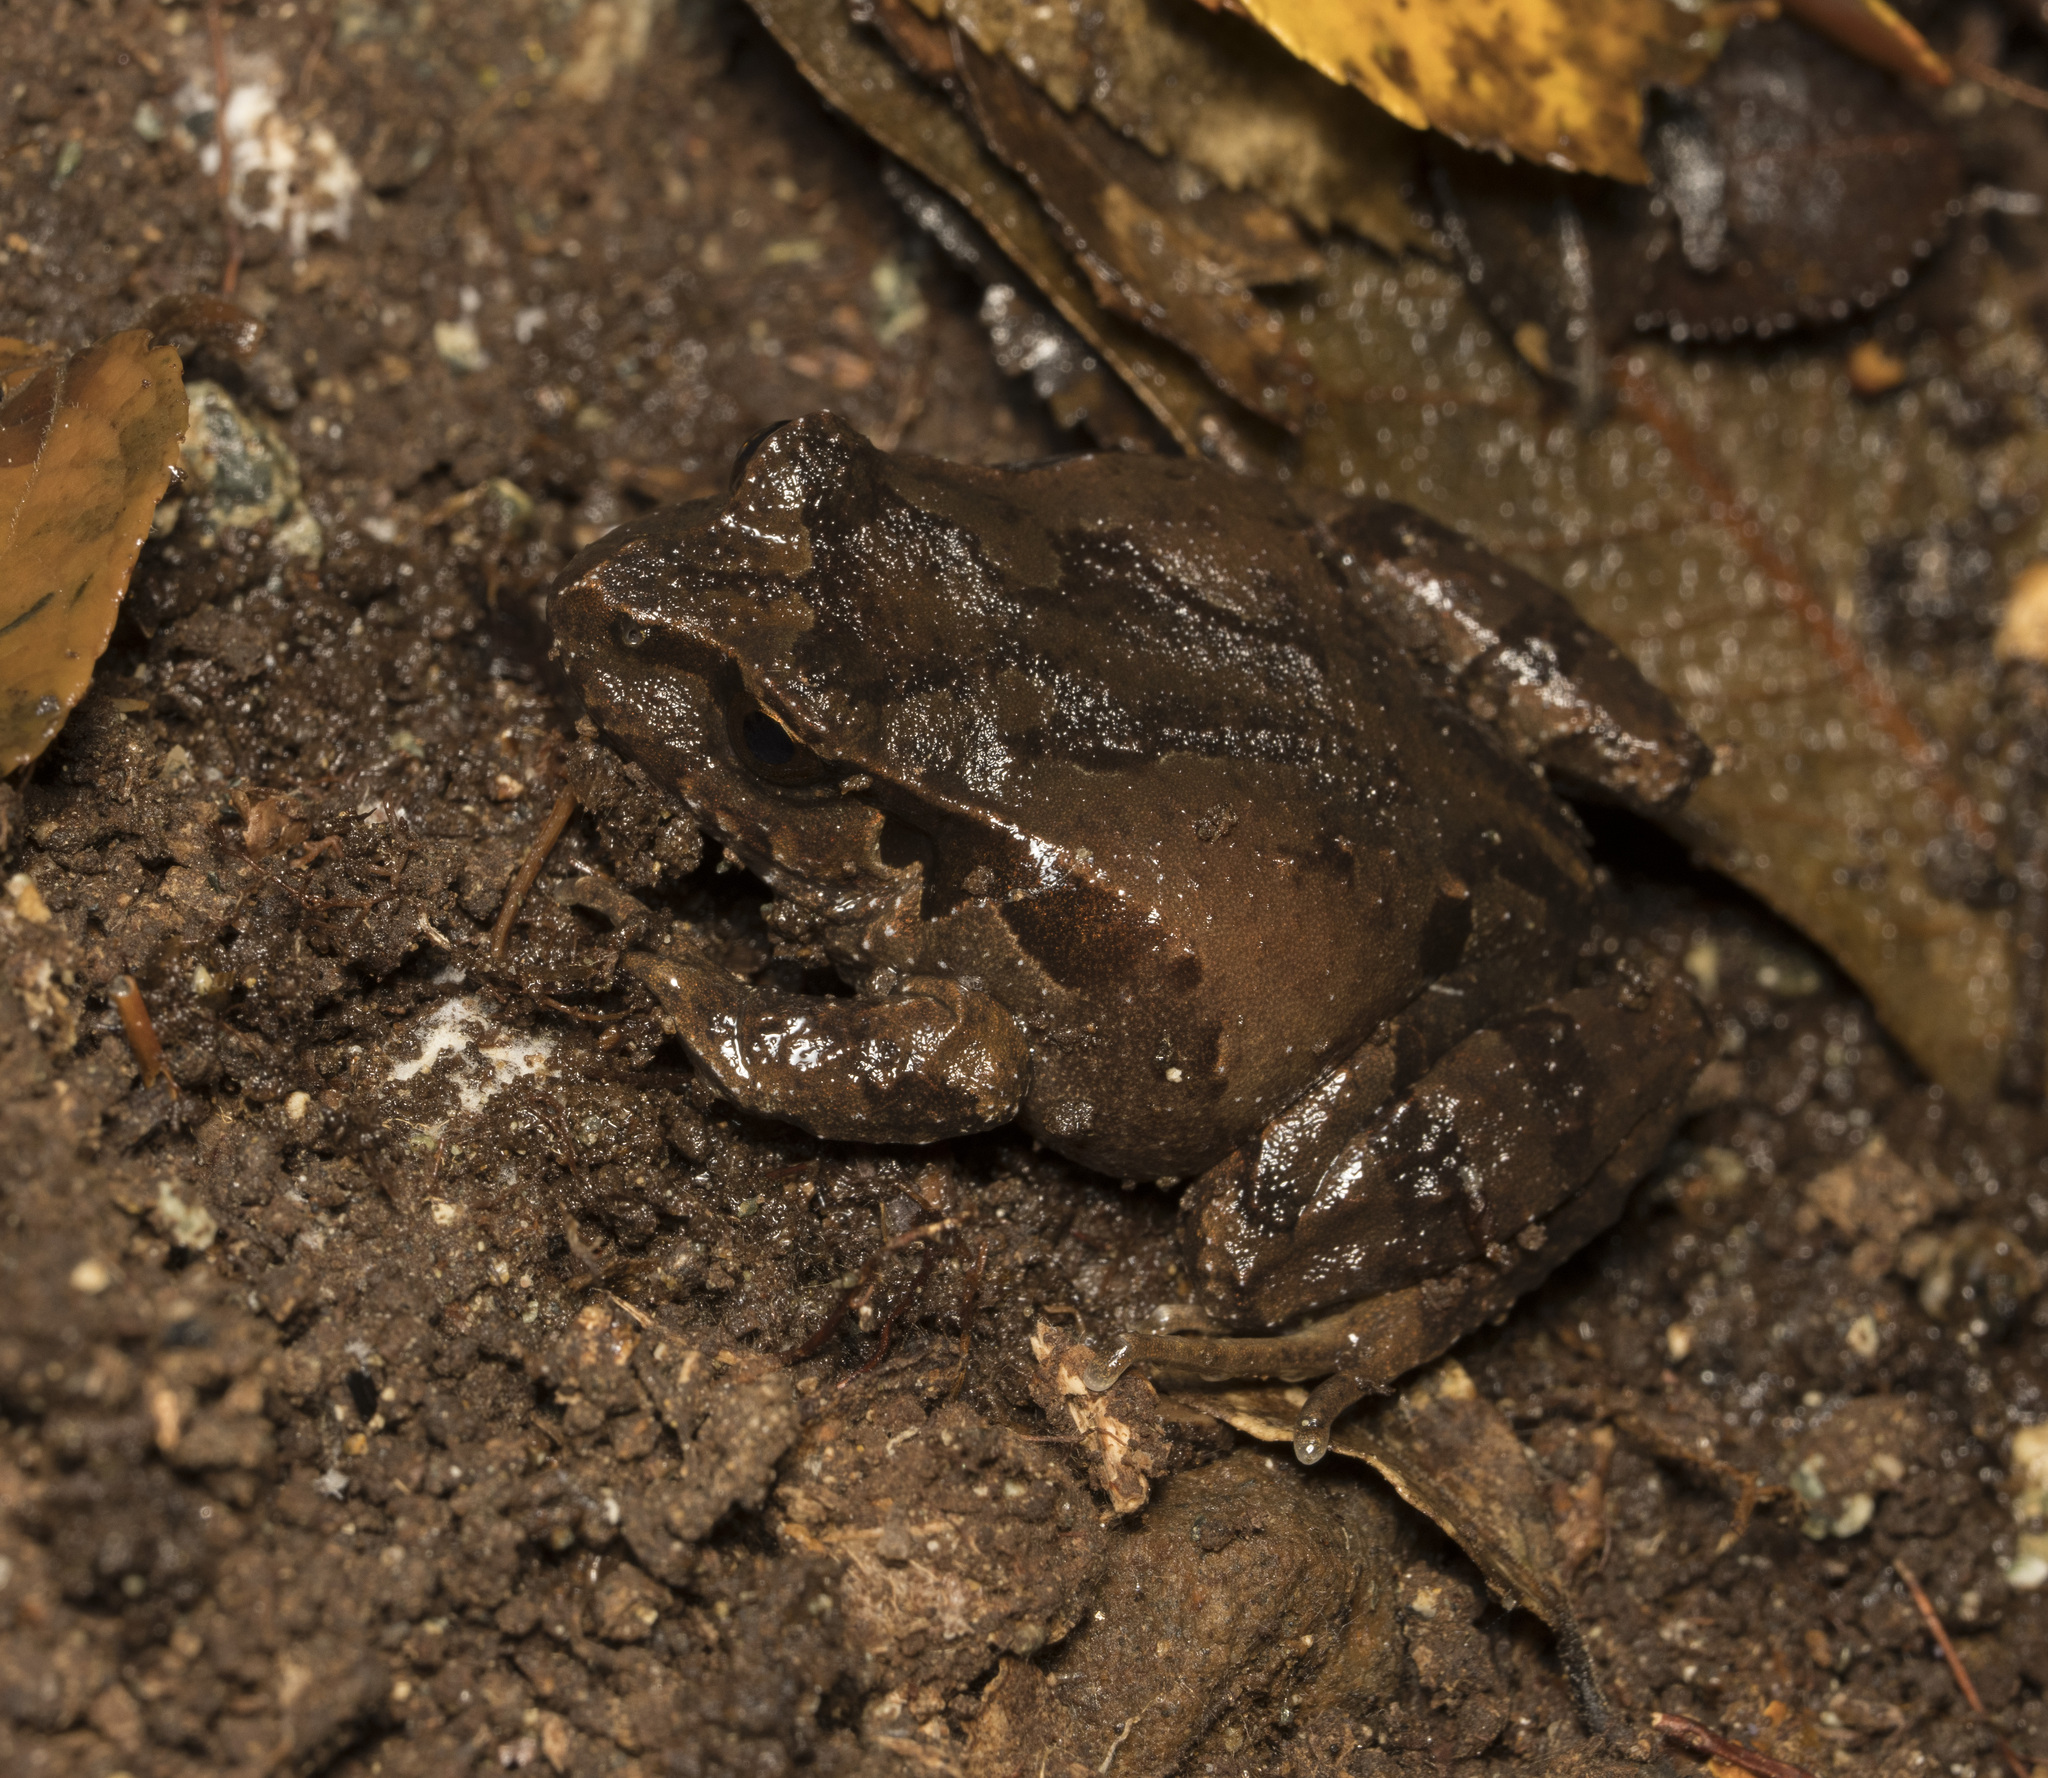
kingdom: Animalia
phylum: Chordata
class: Amphibia
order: Anura
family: Alsodidae
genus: Eupsophus
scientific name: Eupsophus calcaratus
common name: Chiloe island ground frog
